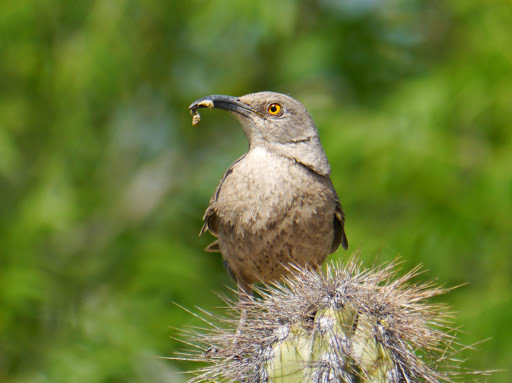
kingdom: Animalia
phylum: Chordata
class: Aves
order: Passeriformes
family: Mimidae
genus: Toxostoma
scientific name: Toxostoma curvirostre
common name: Curve-billed thrasher
